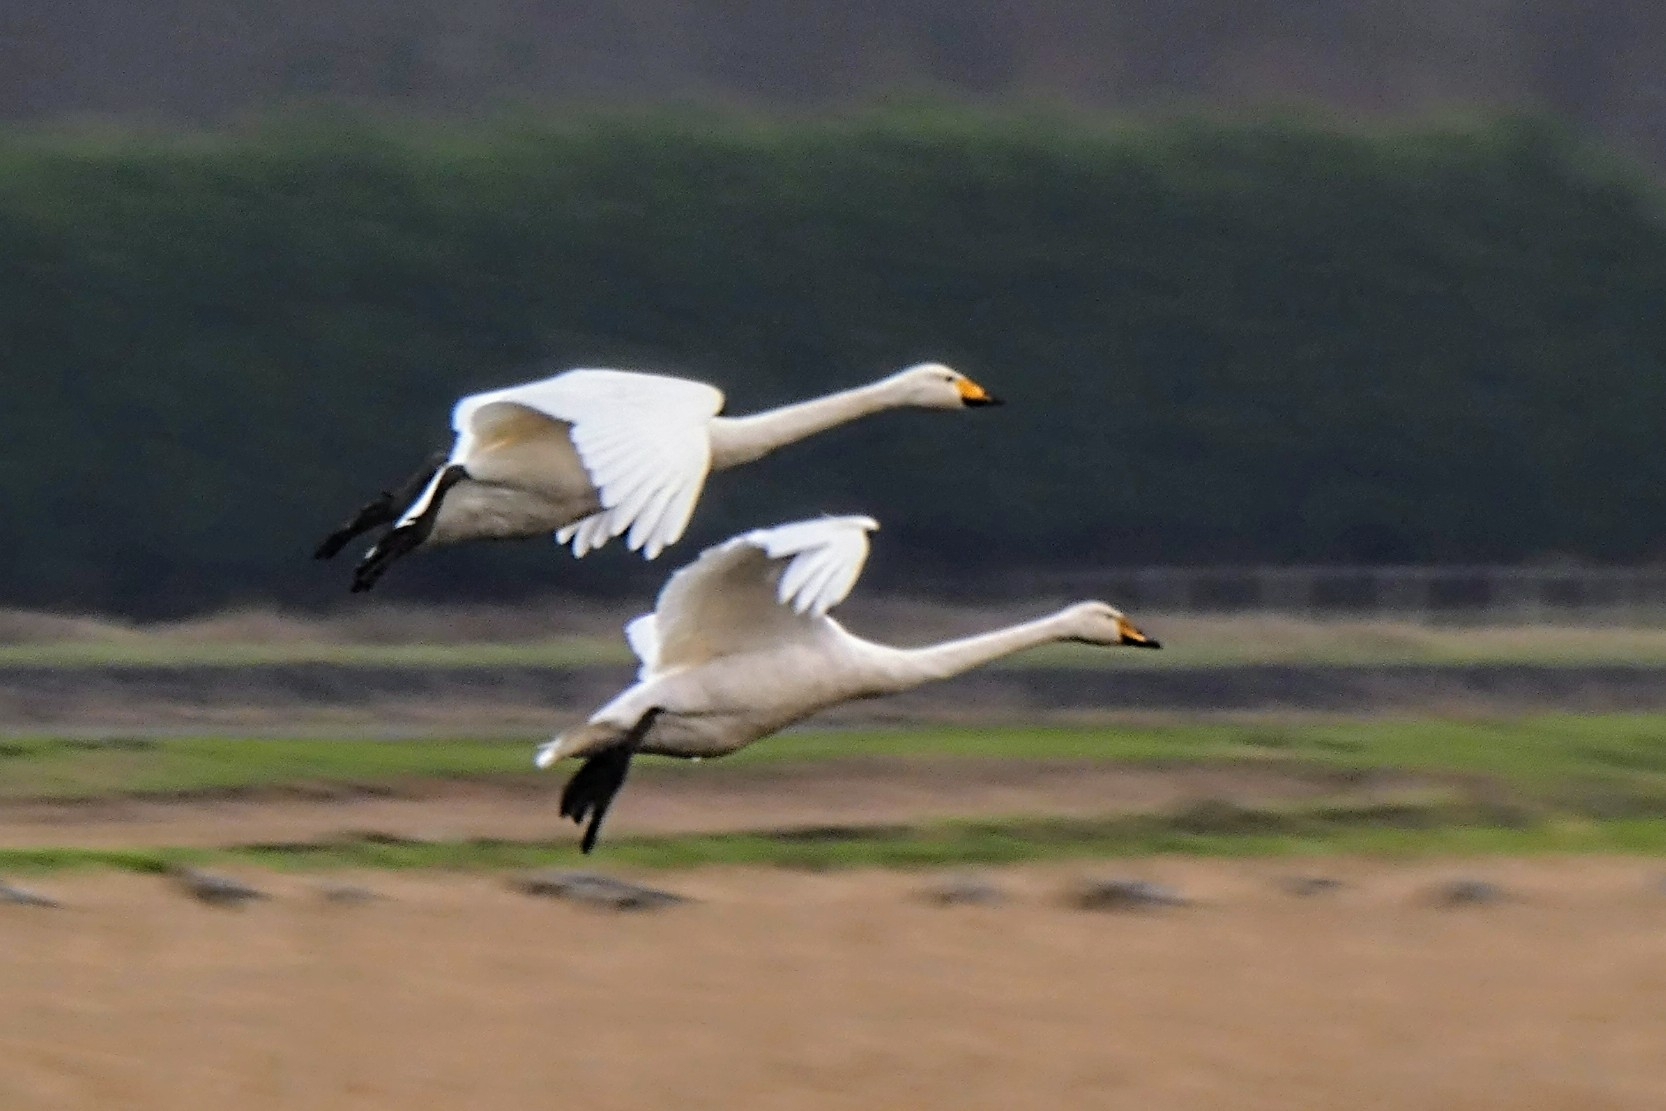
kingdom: Animalia
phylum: Chordata
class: Aves
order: Anseriformes
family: Anatidae
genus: Cygnus
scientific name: Cygnus cygnus
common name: Whooper swan
